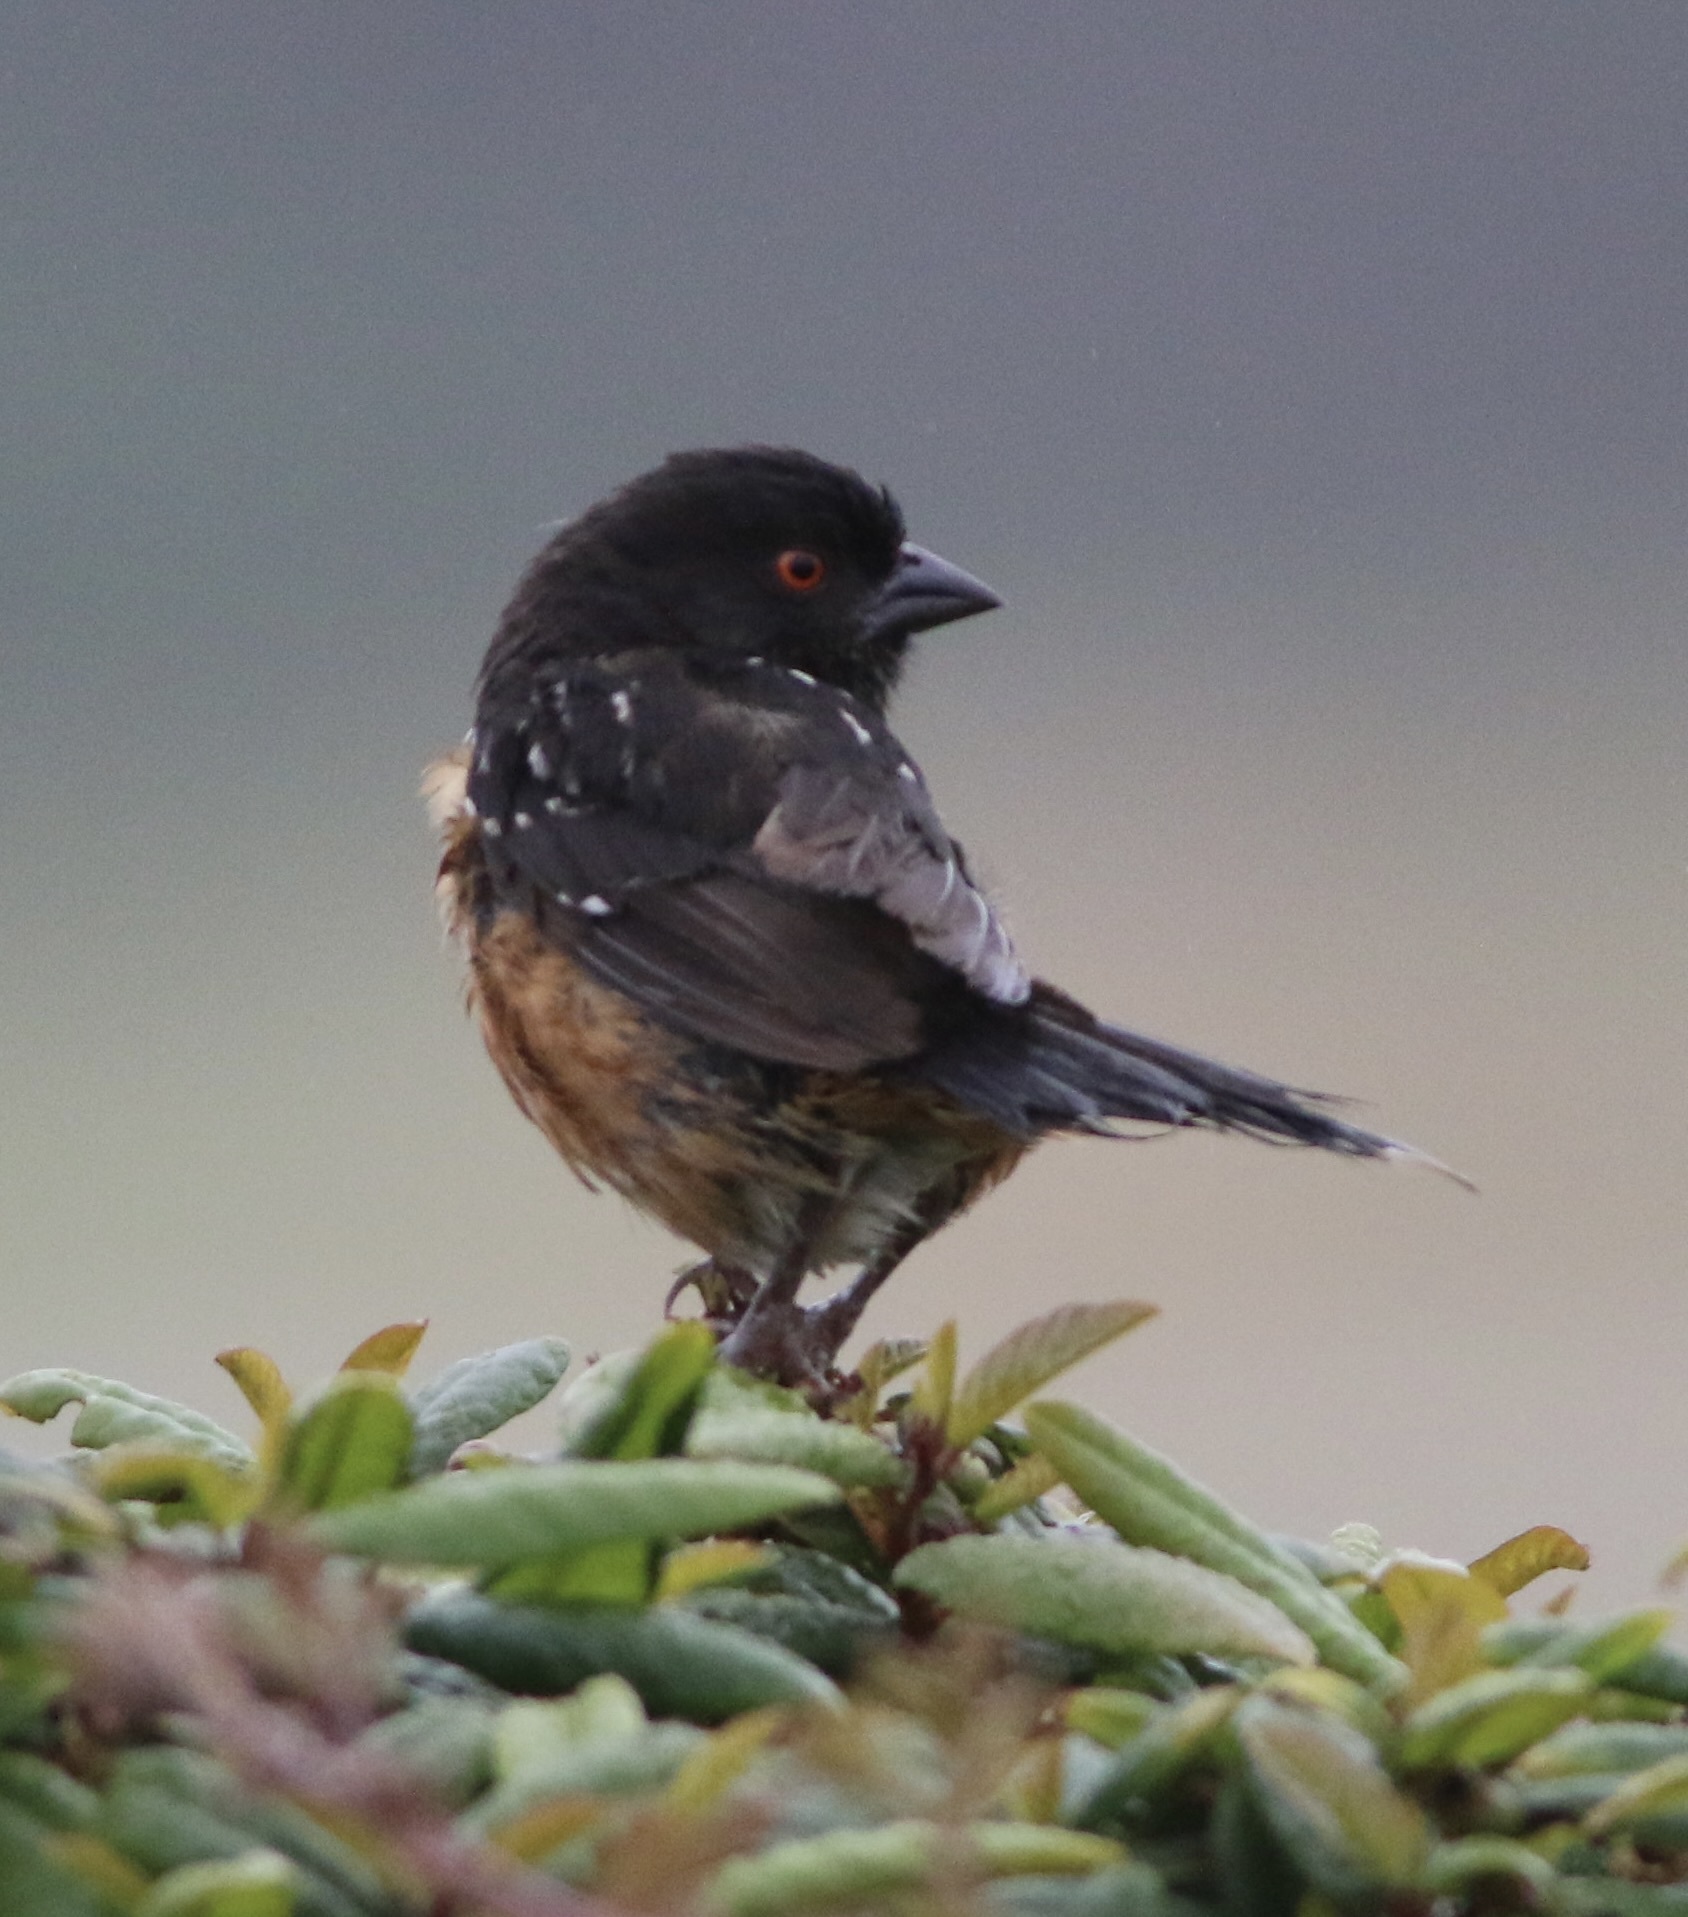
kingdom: Animalia
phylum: Chordata
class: Aves
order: Passeriformes
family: Passerellidae
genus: Pipilo
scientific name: Pipilo maculatus
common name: Spotted towhee
